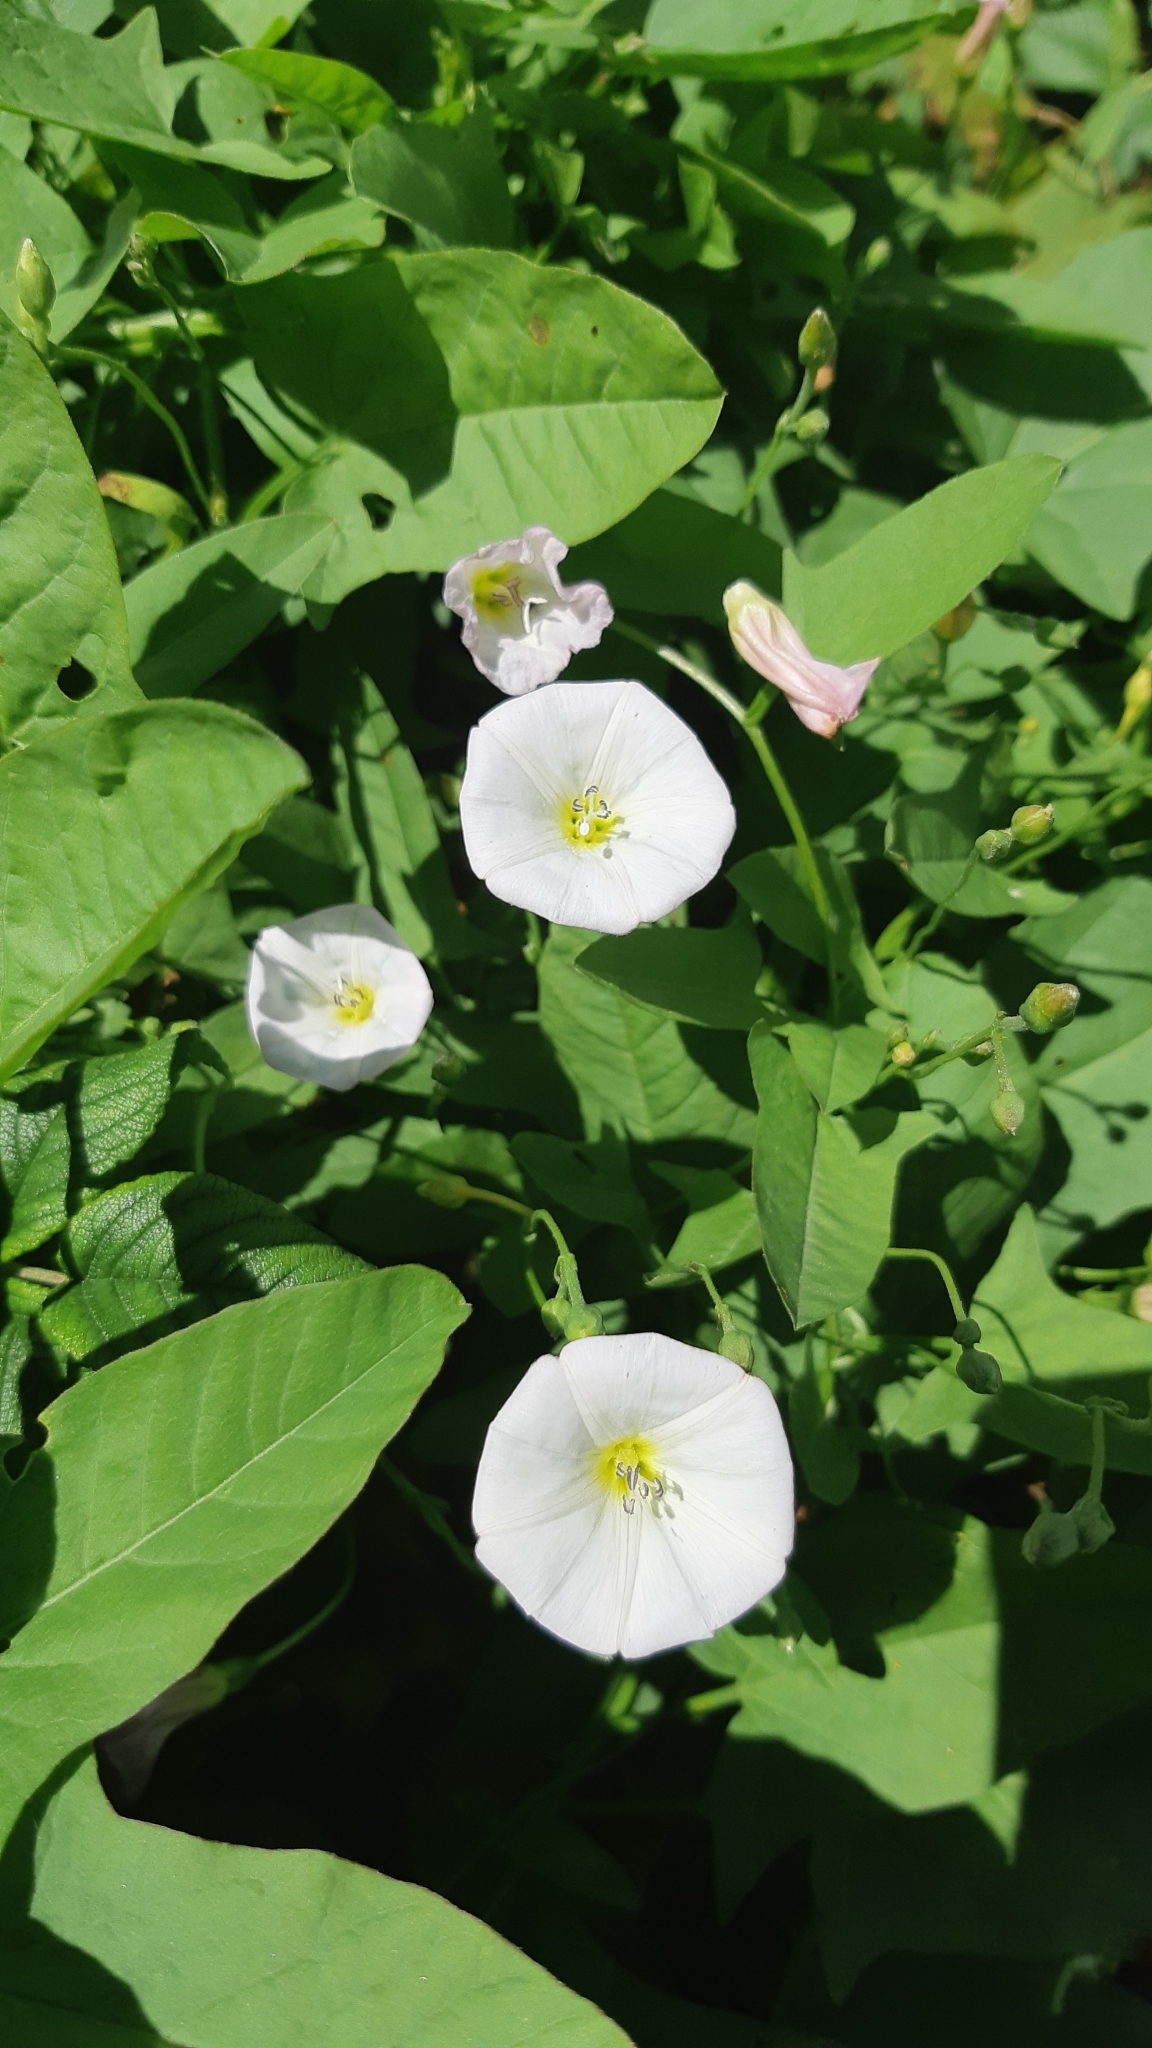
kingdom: Plantae
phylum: Tracheophyta
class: Magnoliopsida
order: Solanales
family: Convolvulaceae
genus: Convolvulus
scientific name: Convolvulus arvensis
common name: Field bindweed
